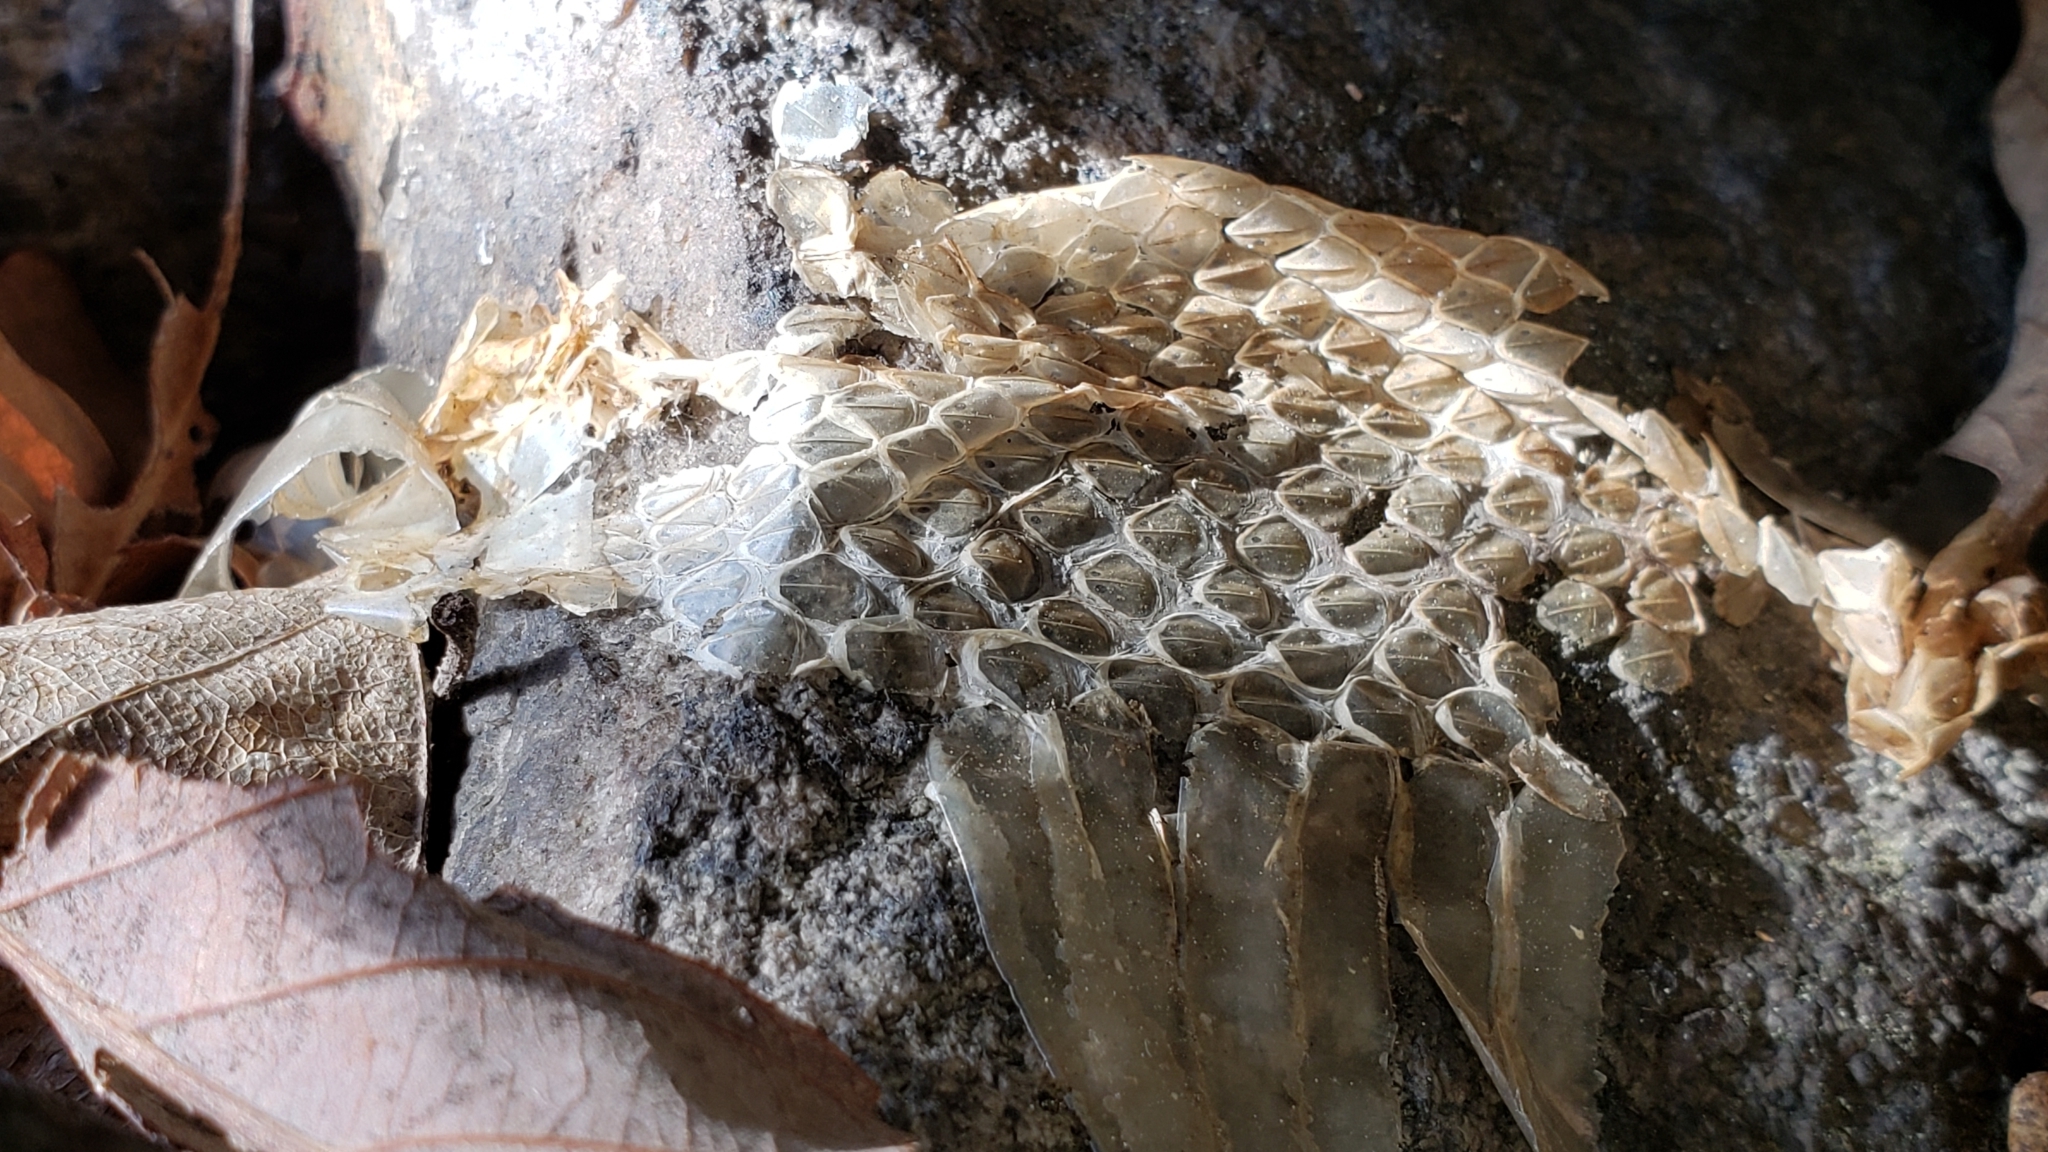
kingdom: Animalia
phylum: Chordata
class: Squamata
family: Viperidae
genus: Agkistrodon
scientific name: Agkistrodon contortrix
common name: Northern copperhead
